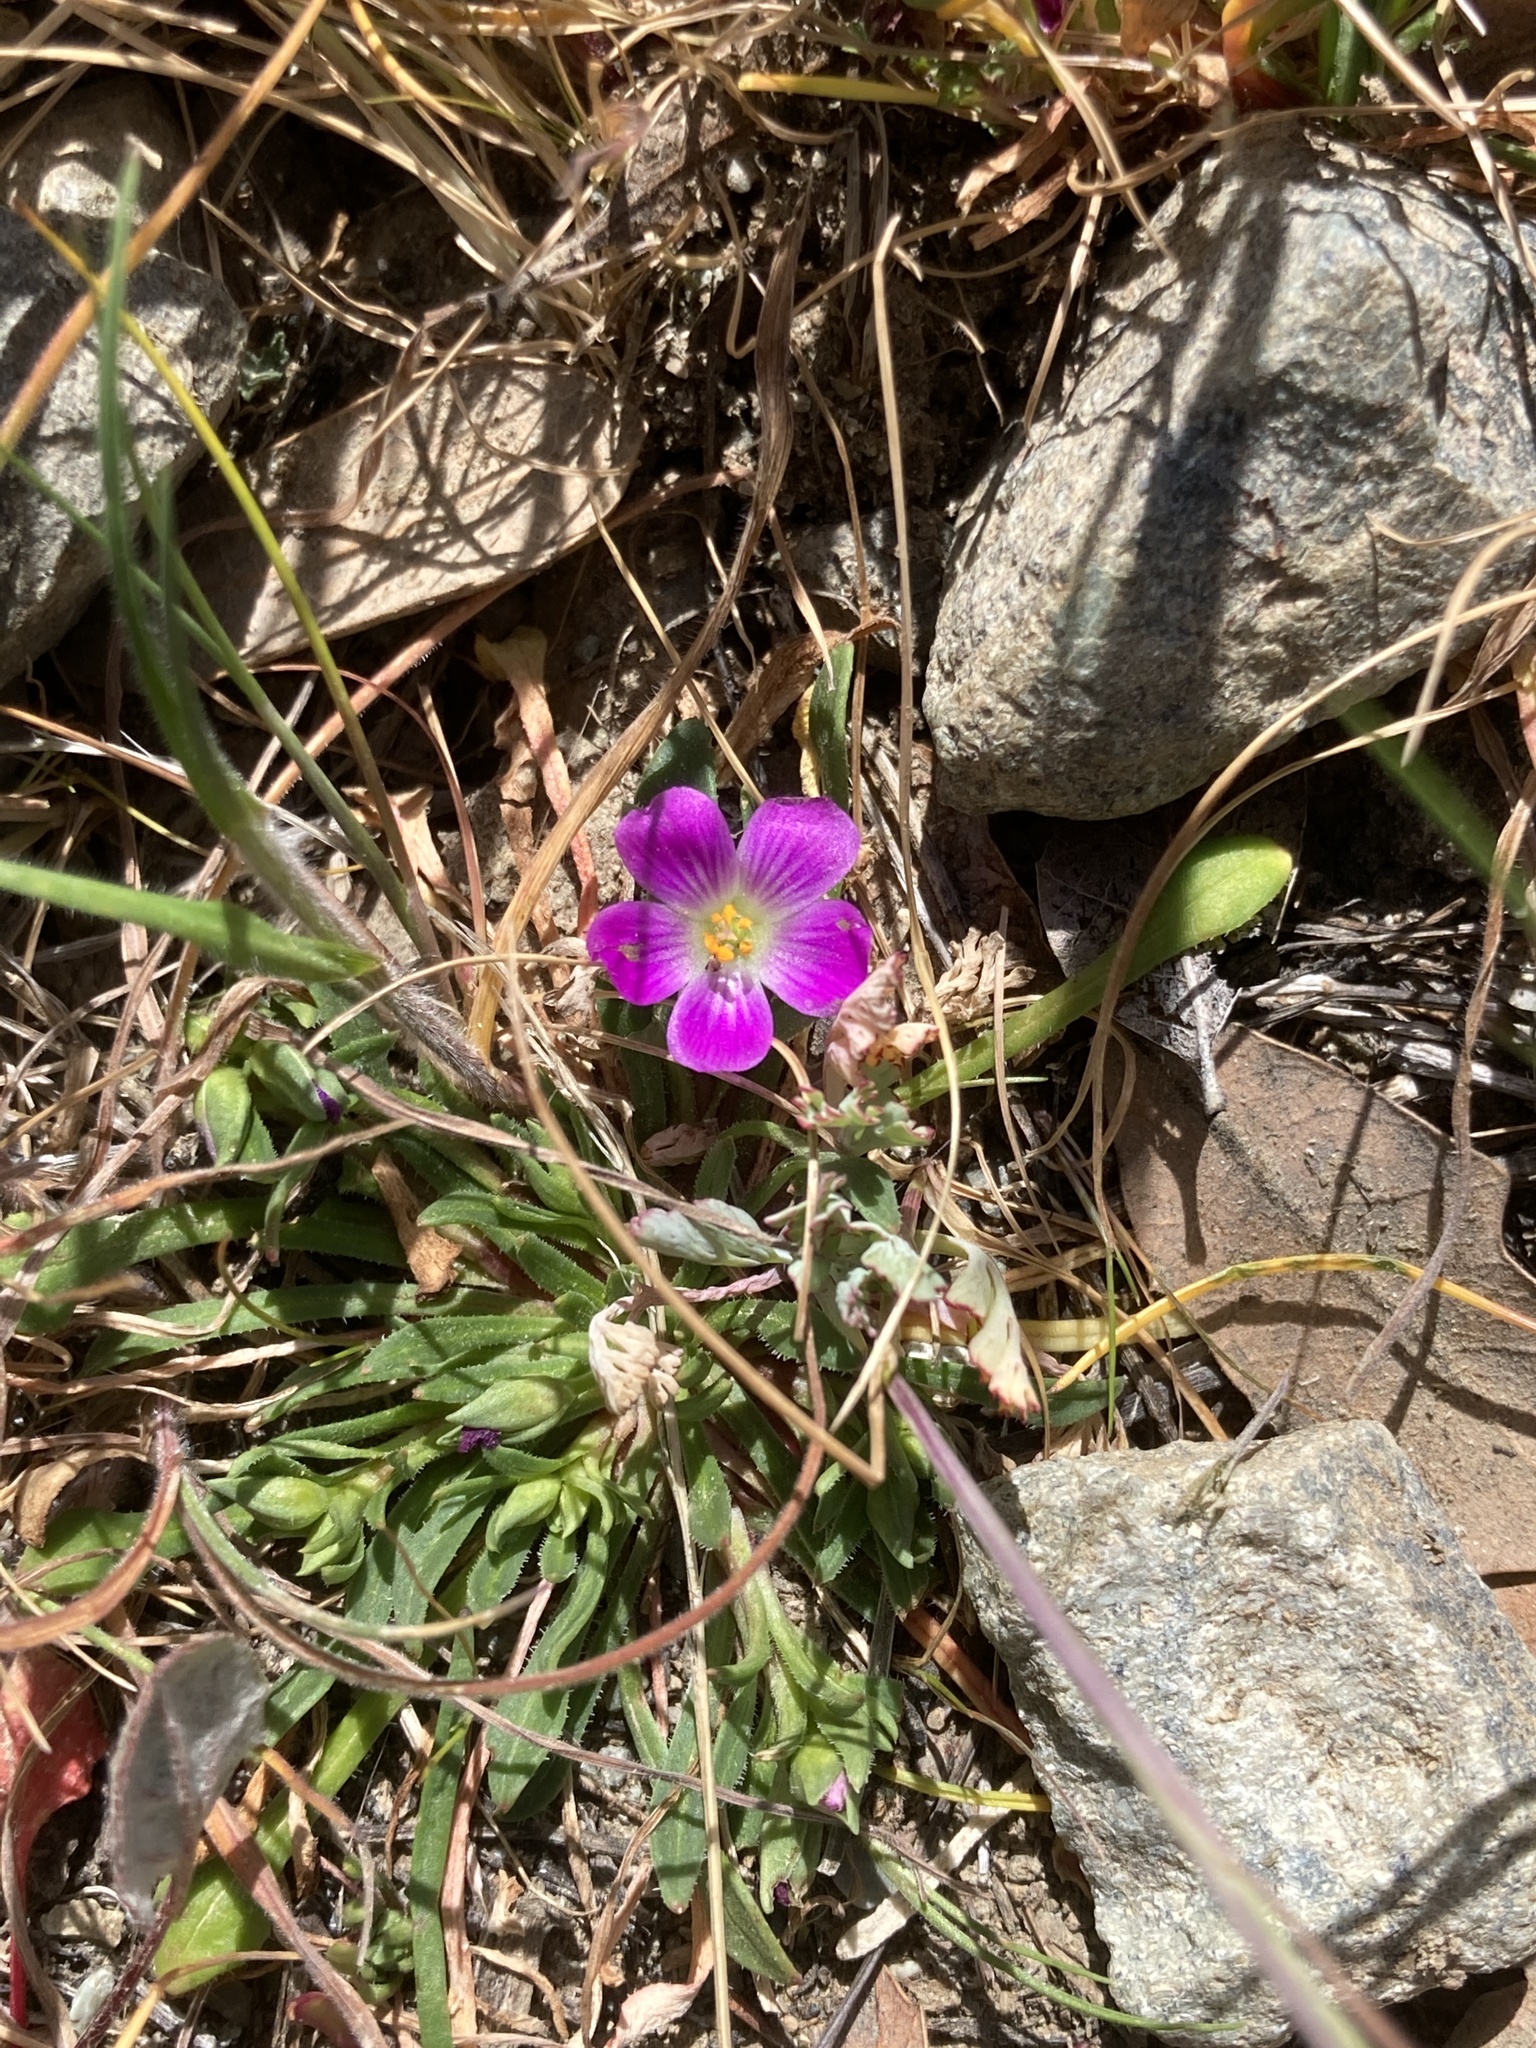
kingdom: Plantae
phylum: Tracheophyta
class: Magnoliopsida
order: Caryophyllales
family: Montiaceae
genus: Calandrinia
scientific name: Calandrinia menziesii
